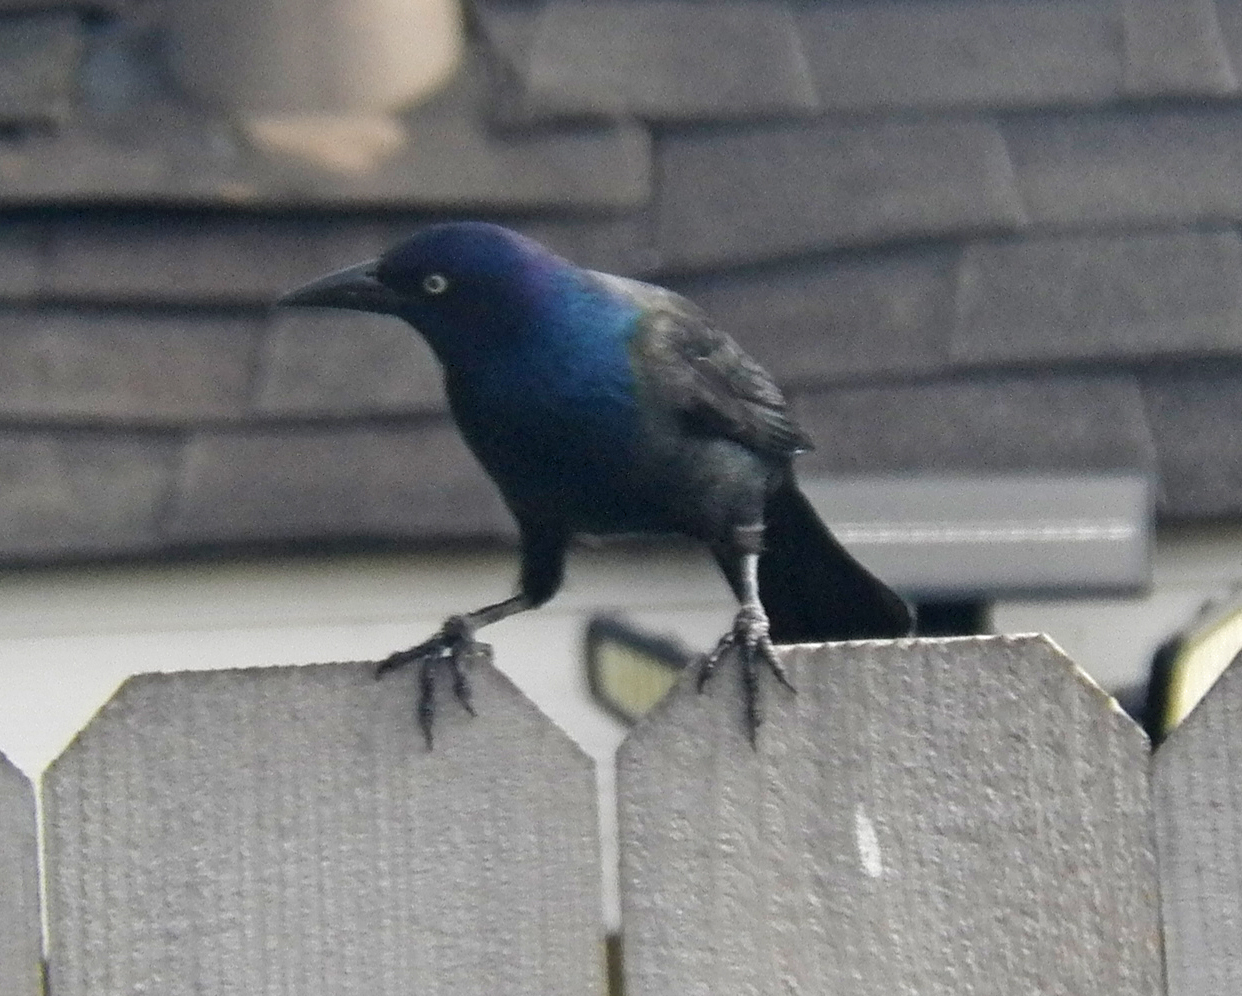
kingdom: Animalia
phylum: Chordata
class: Aves
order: Passeriformes
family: Icteridae
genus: Quiscalus
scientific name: Quiscalus quiscula
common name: Common grackle
